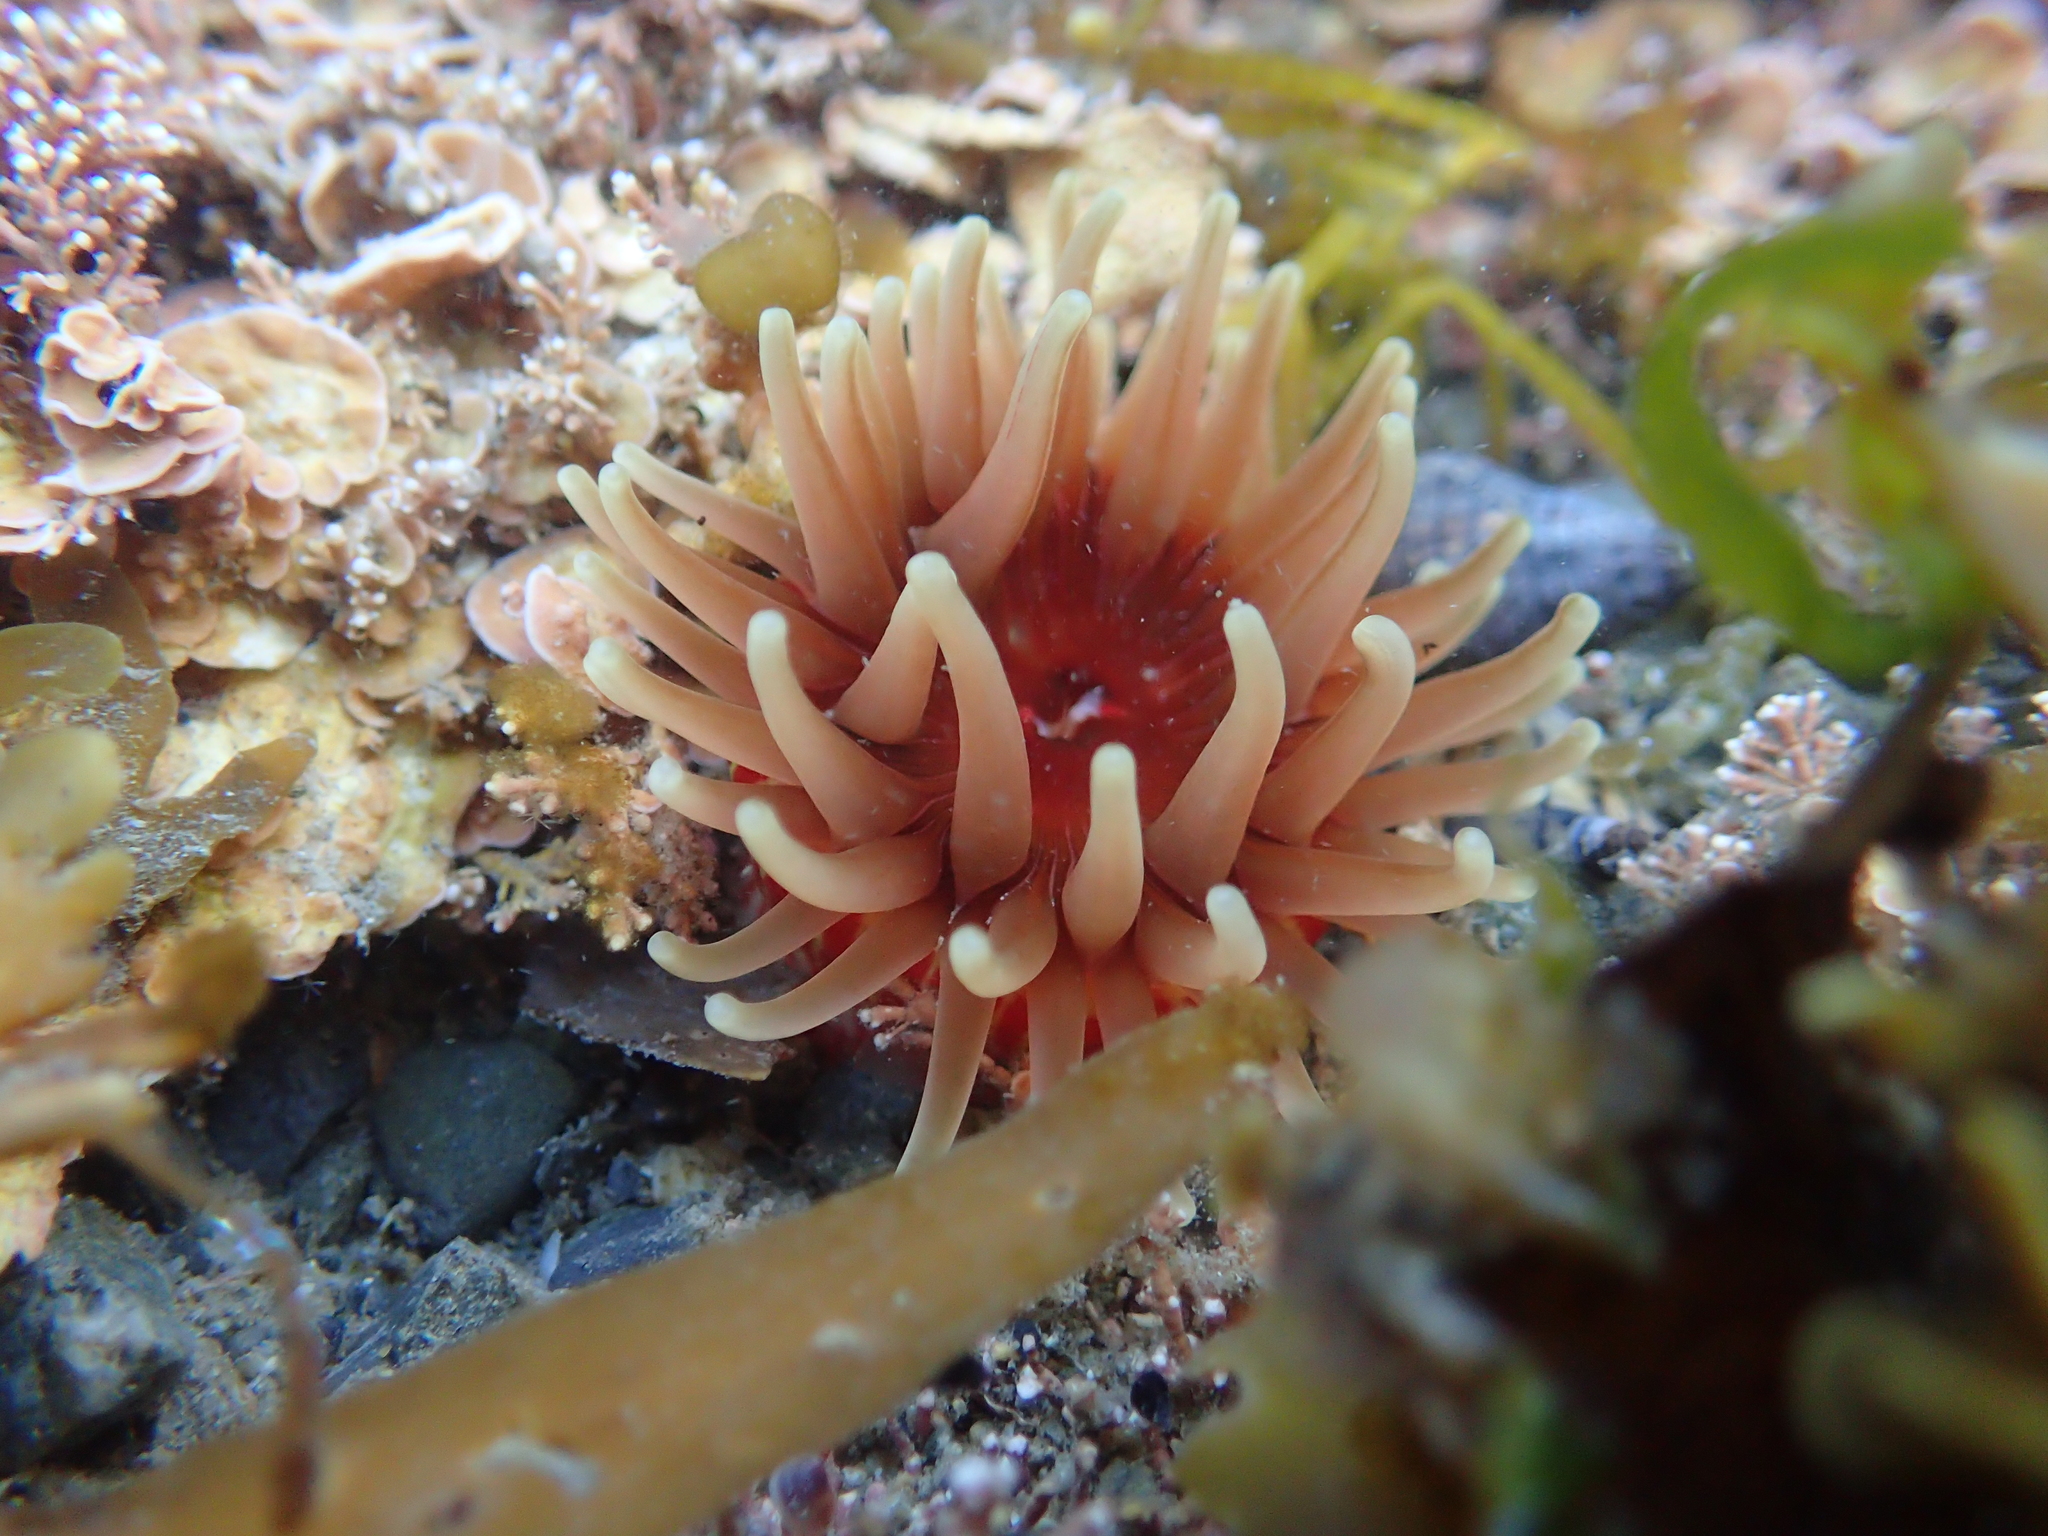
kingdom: Animalia
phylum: Cnidaria
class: Anthozoa
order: Actiniaria
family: Actiniidae
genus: Epiactis
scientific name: Epiactis thompsoni
